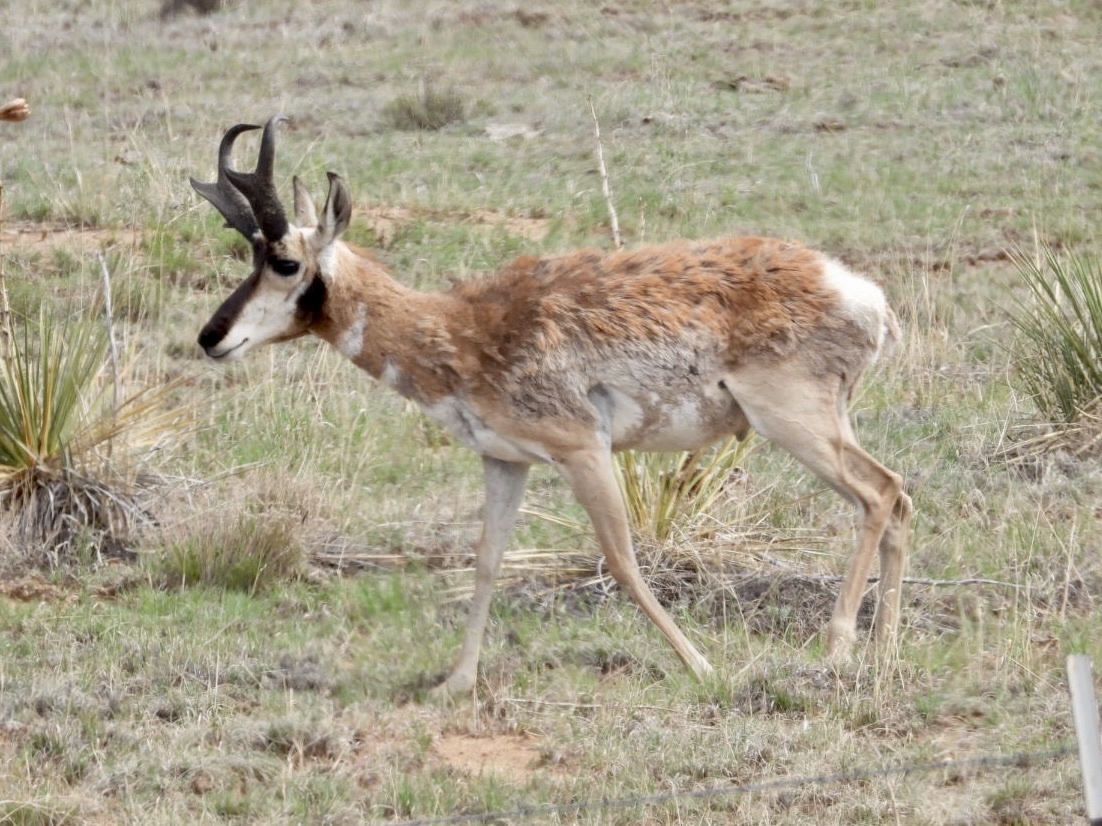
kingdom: Animalia
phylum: Chordata
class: Mammalia
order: Artiodactyla
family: Antilocapridae
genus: Antilocapra
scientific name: Antilocapra americana
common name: Pronghorn
